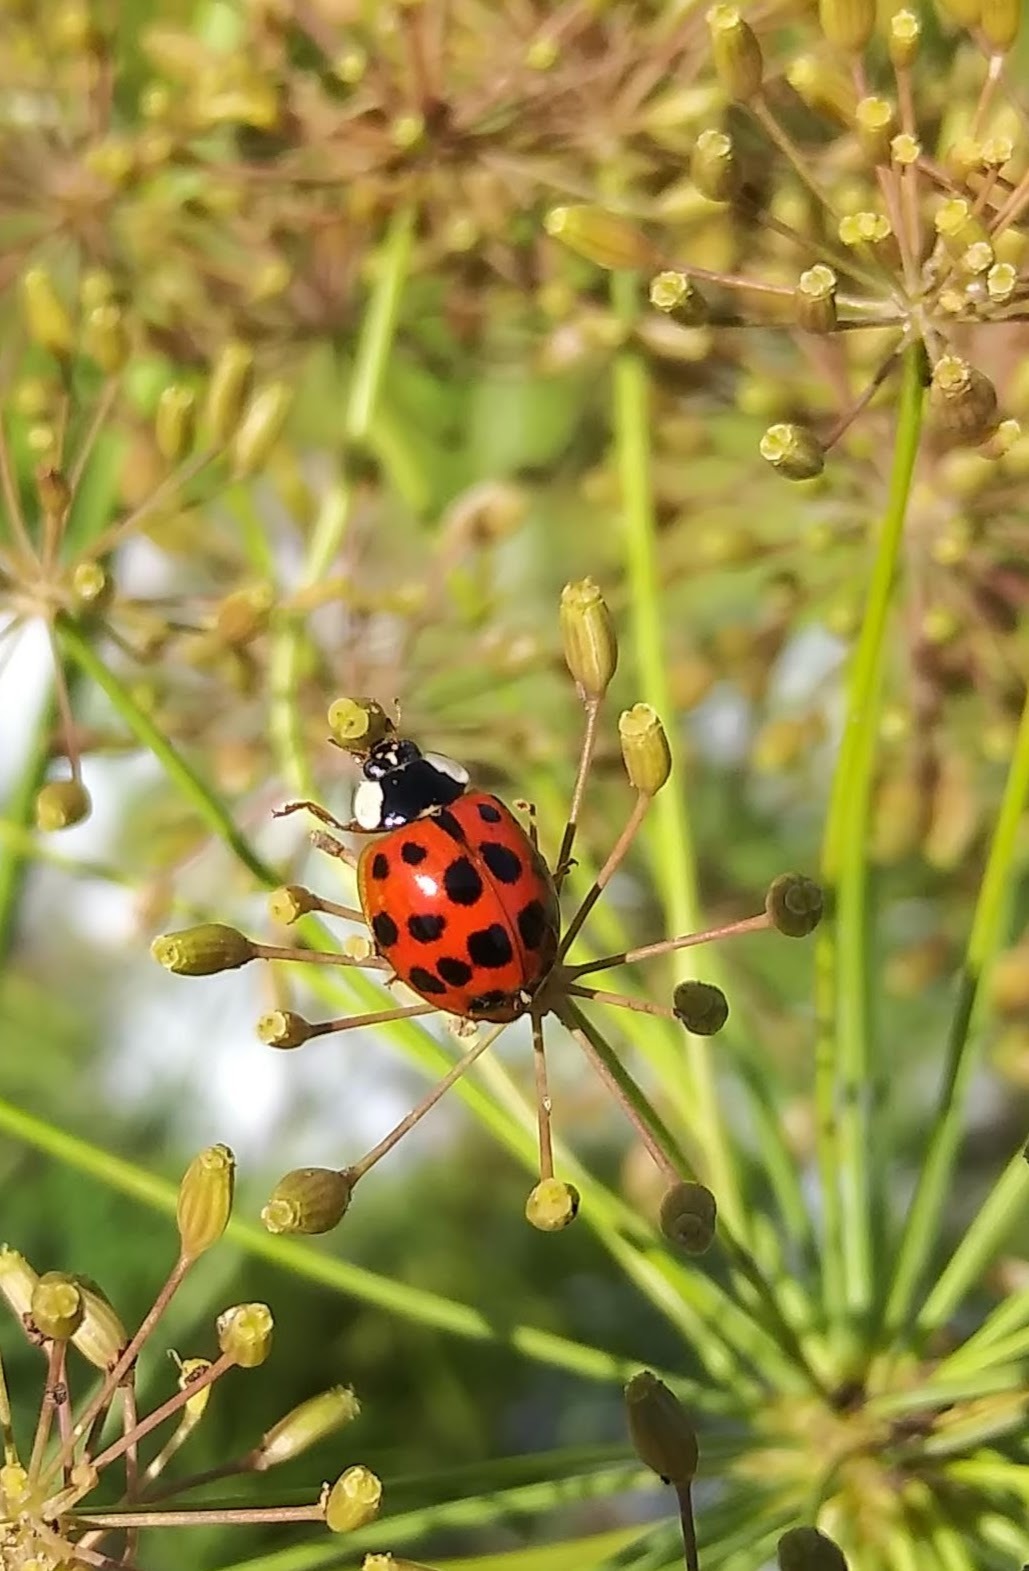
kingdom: Animalia
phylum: Arthropoda
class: Insecta
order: Coleoptera
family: Coccinellidae
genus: Harmonia
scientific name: Harmonia axyridis
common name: Harlequin ladybird
